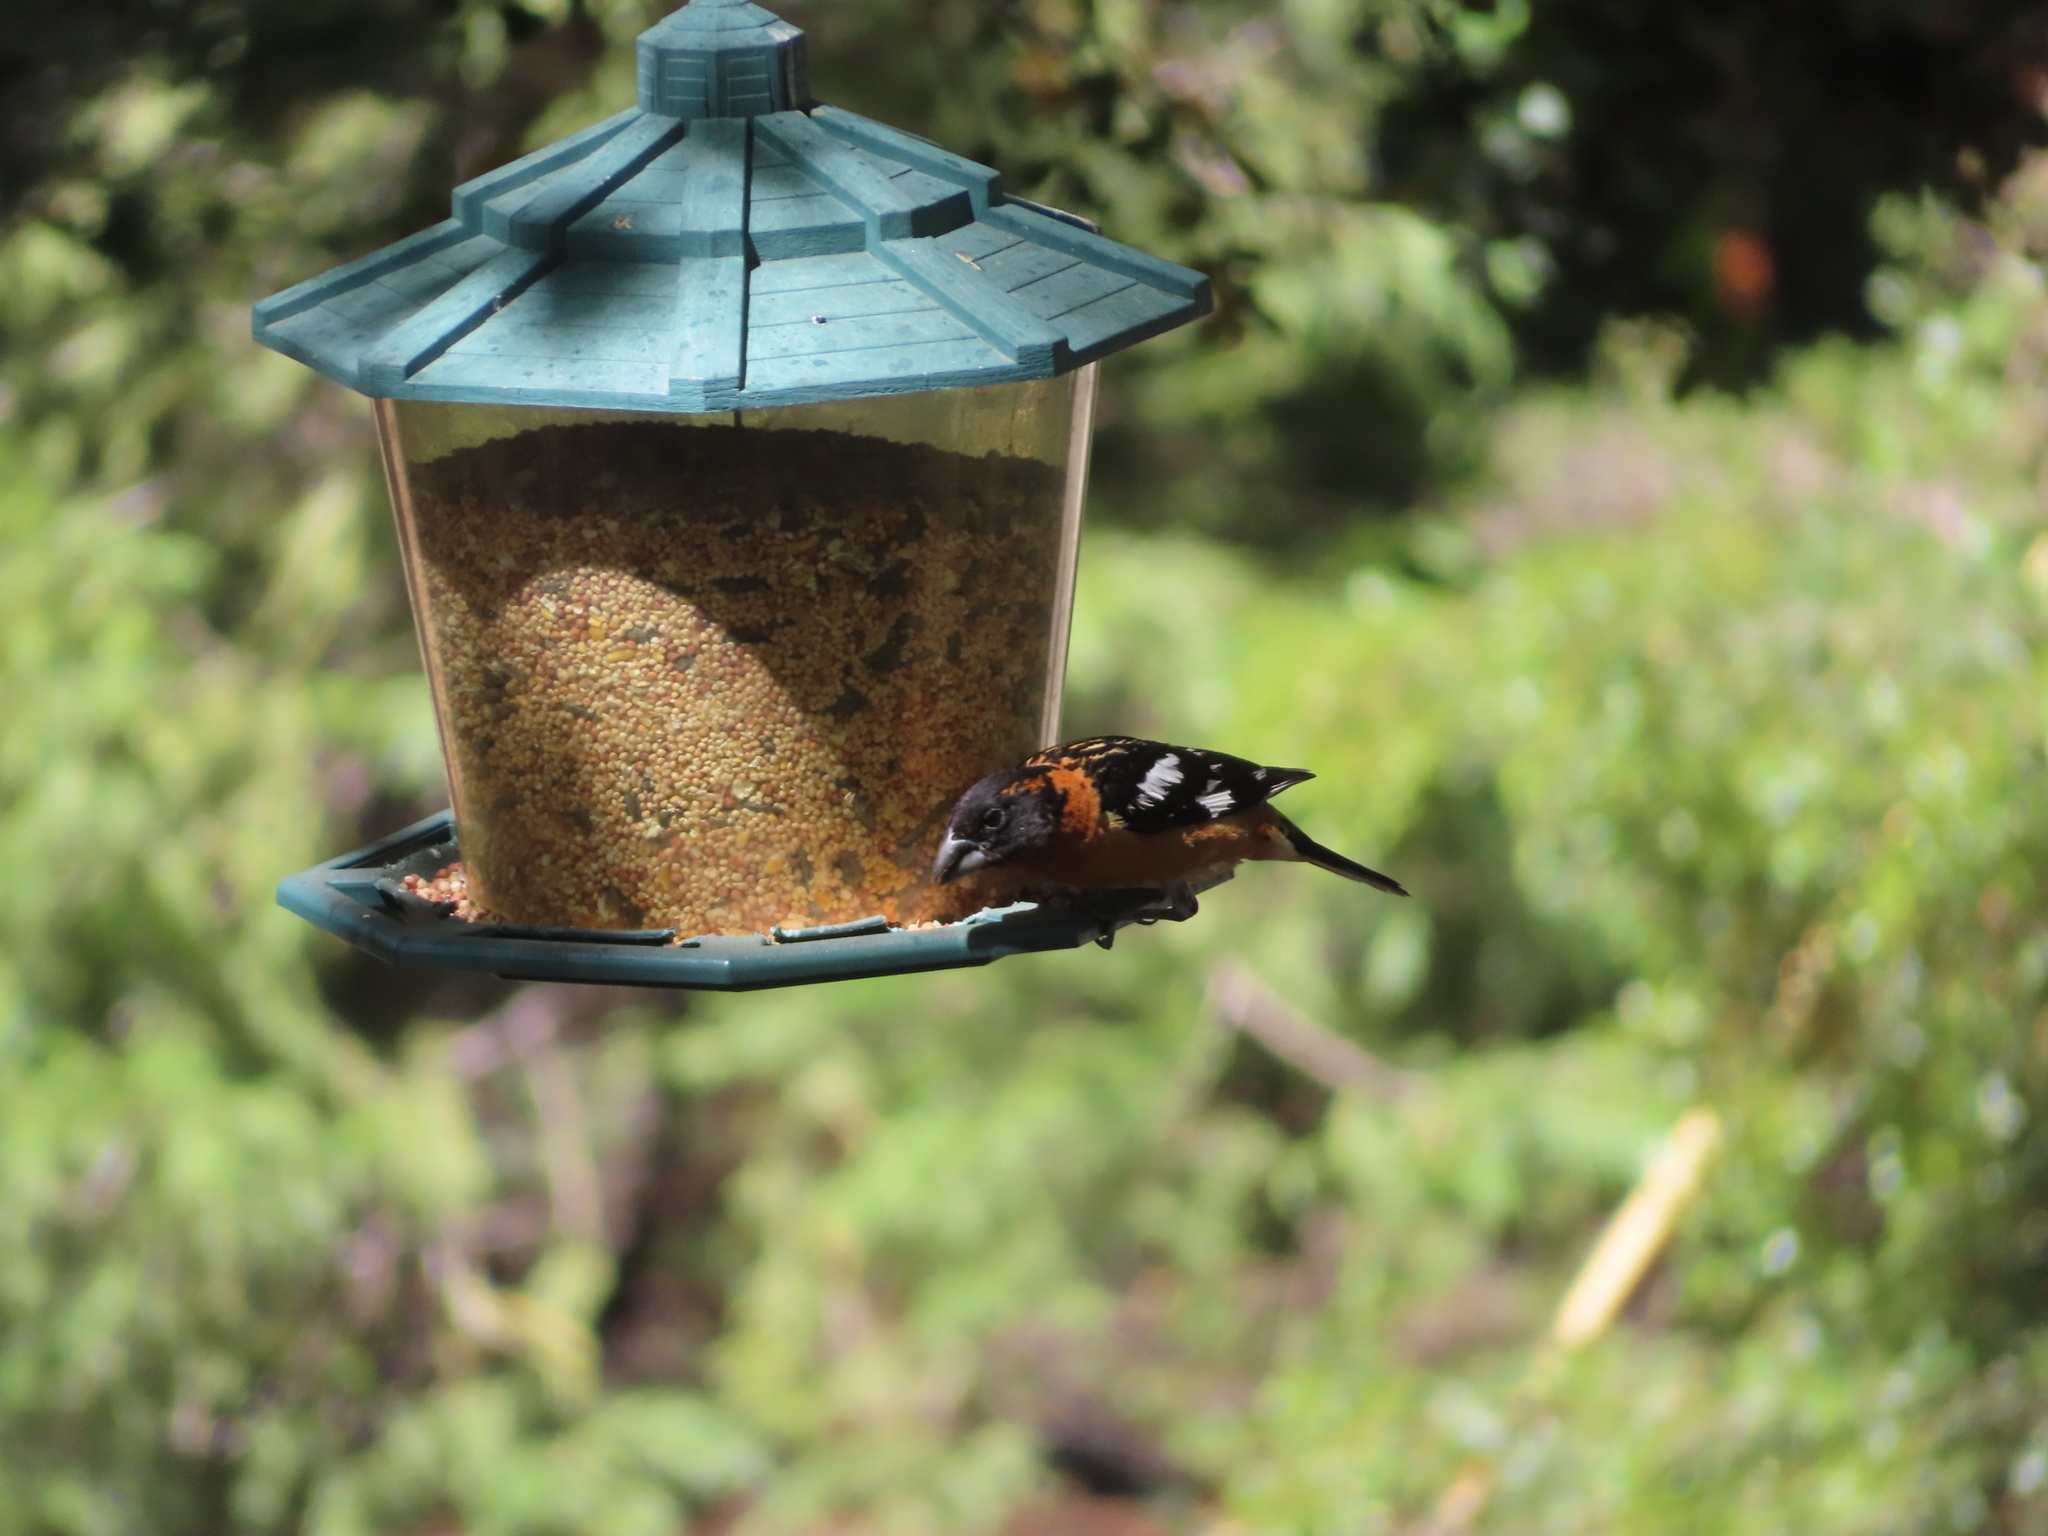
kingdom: Animalia
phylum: Chordata
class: Aves
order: Passeriformes
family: Cardinalidae
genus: Pheucticus
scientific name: Pheucticus melanocephalus
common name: Black-headed grosbeak
